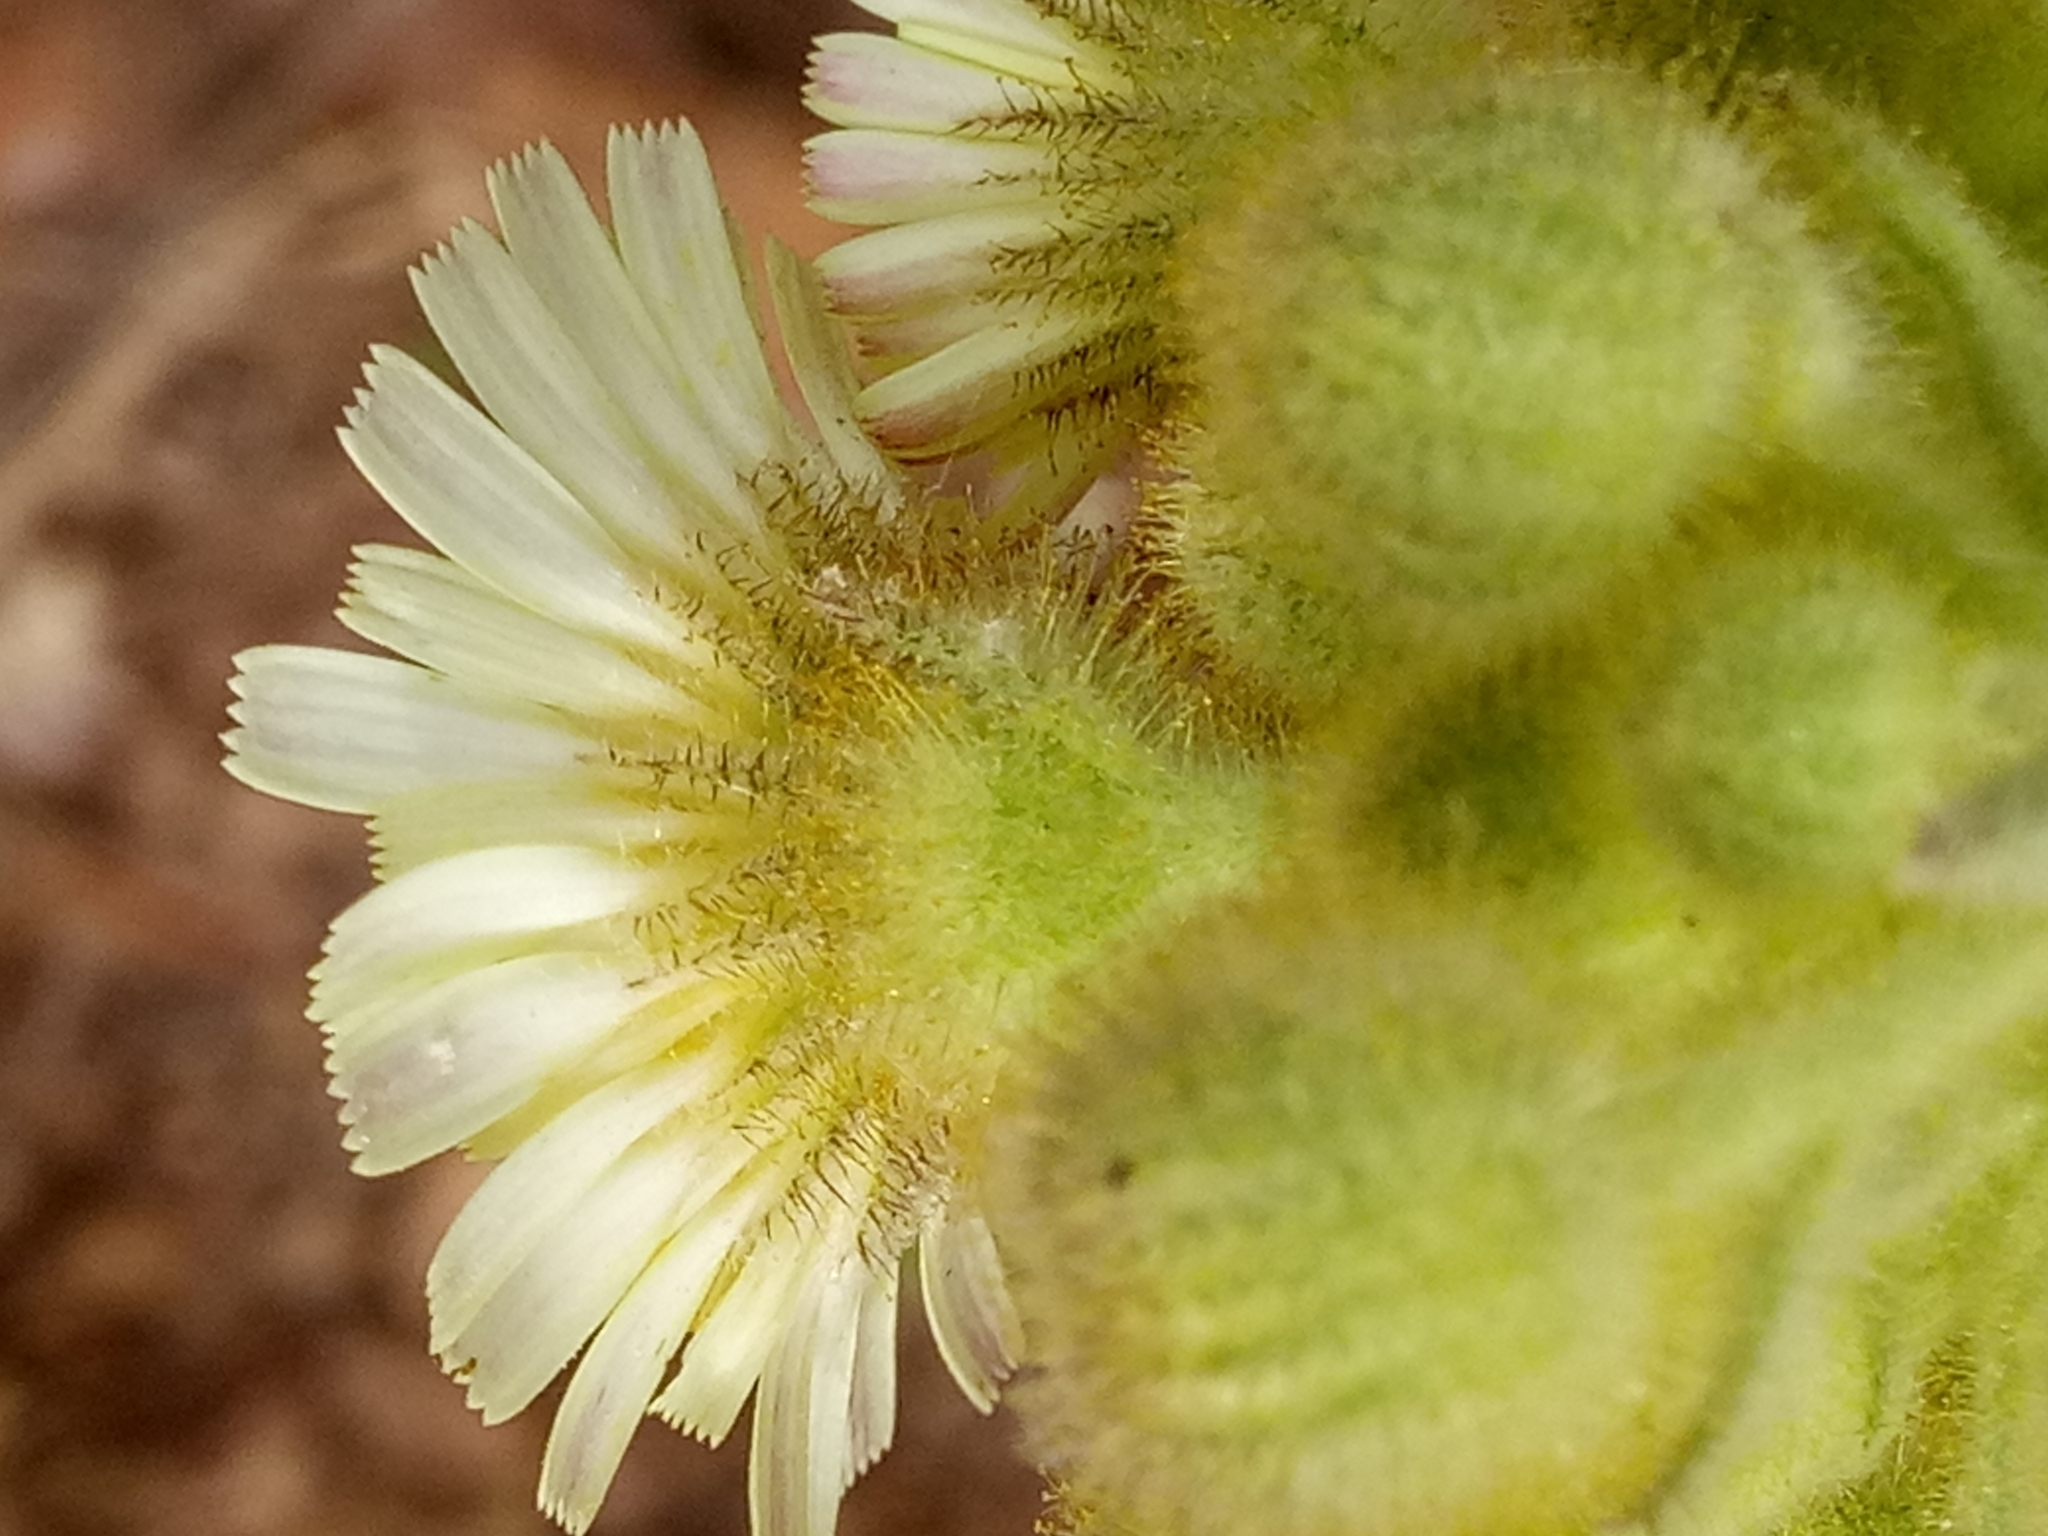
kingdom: Plantae
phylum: Tracheophyta
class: Magnoliopsida
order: Asterales
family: Asteraceae
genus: Andryala
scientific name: Andryala integrifolia
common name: Common andryala
